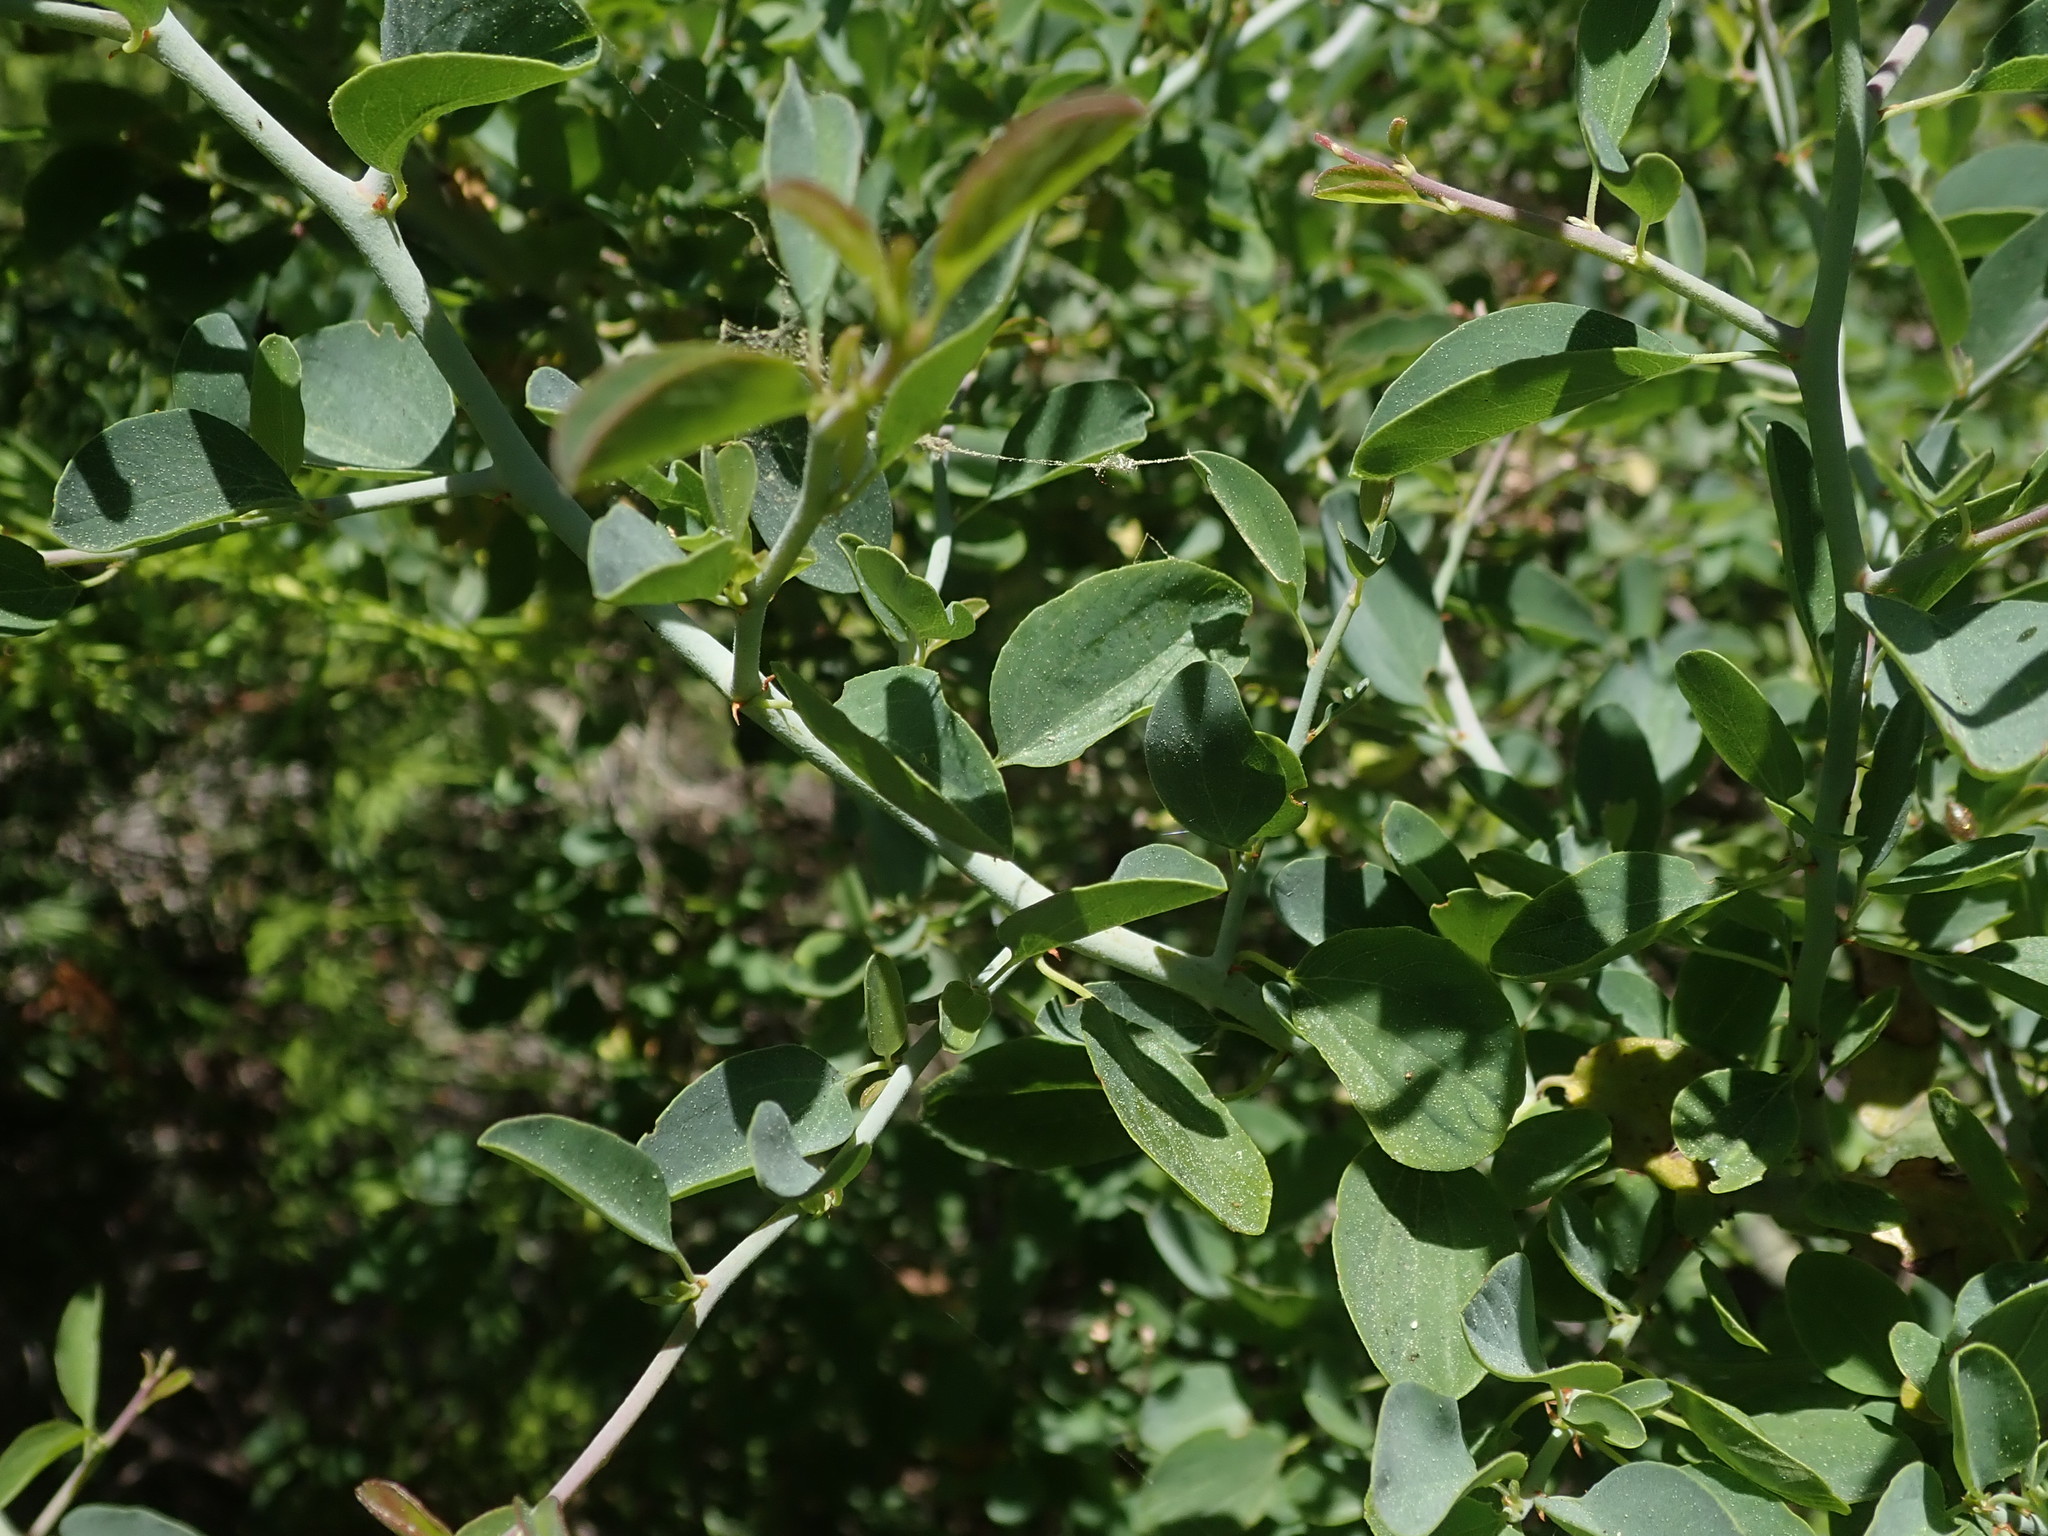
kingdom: Plantae
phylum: Tracheophyta
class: Magnoliopsida
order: Rosales
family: Rhamnaceae
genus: Ceanothus
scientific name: Ceanothus cordulatus
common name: Mountain whitethorn
